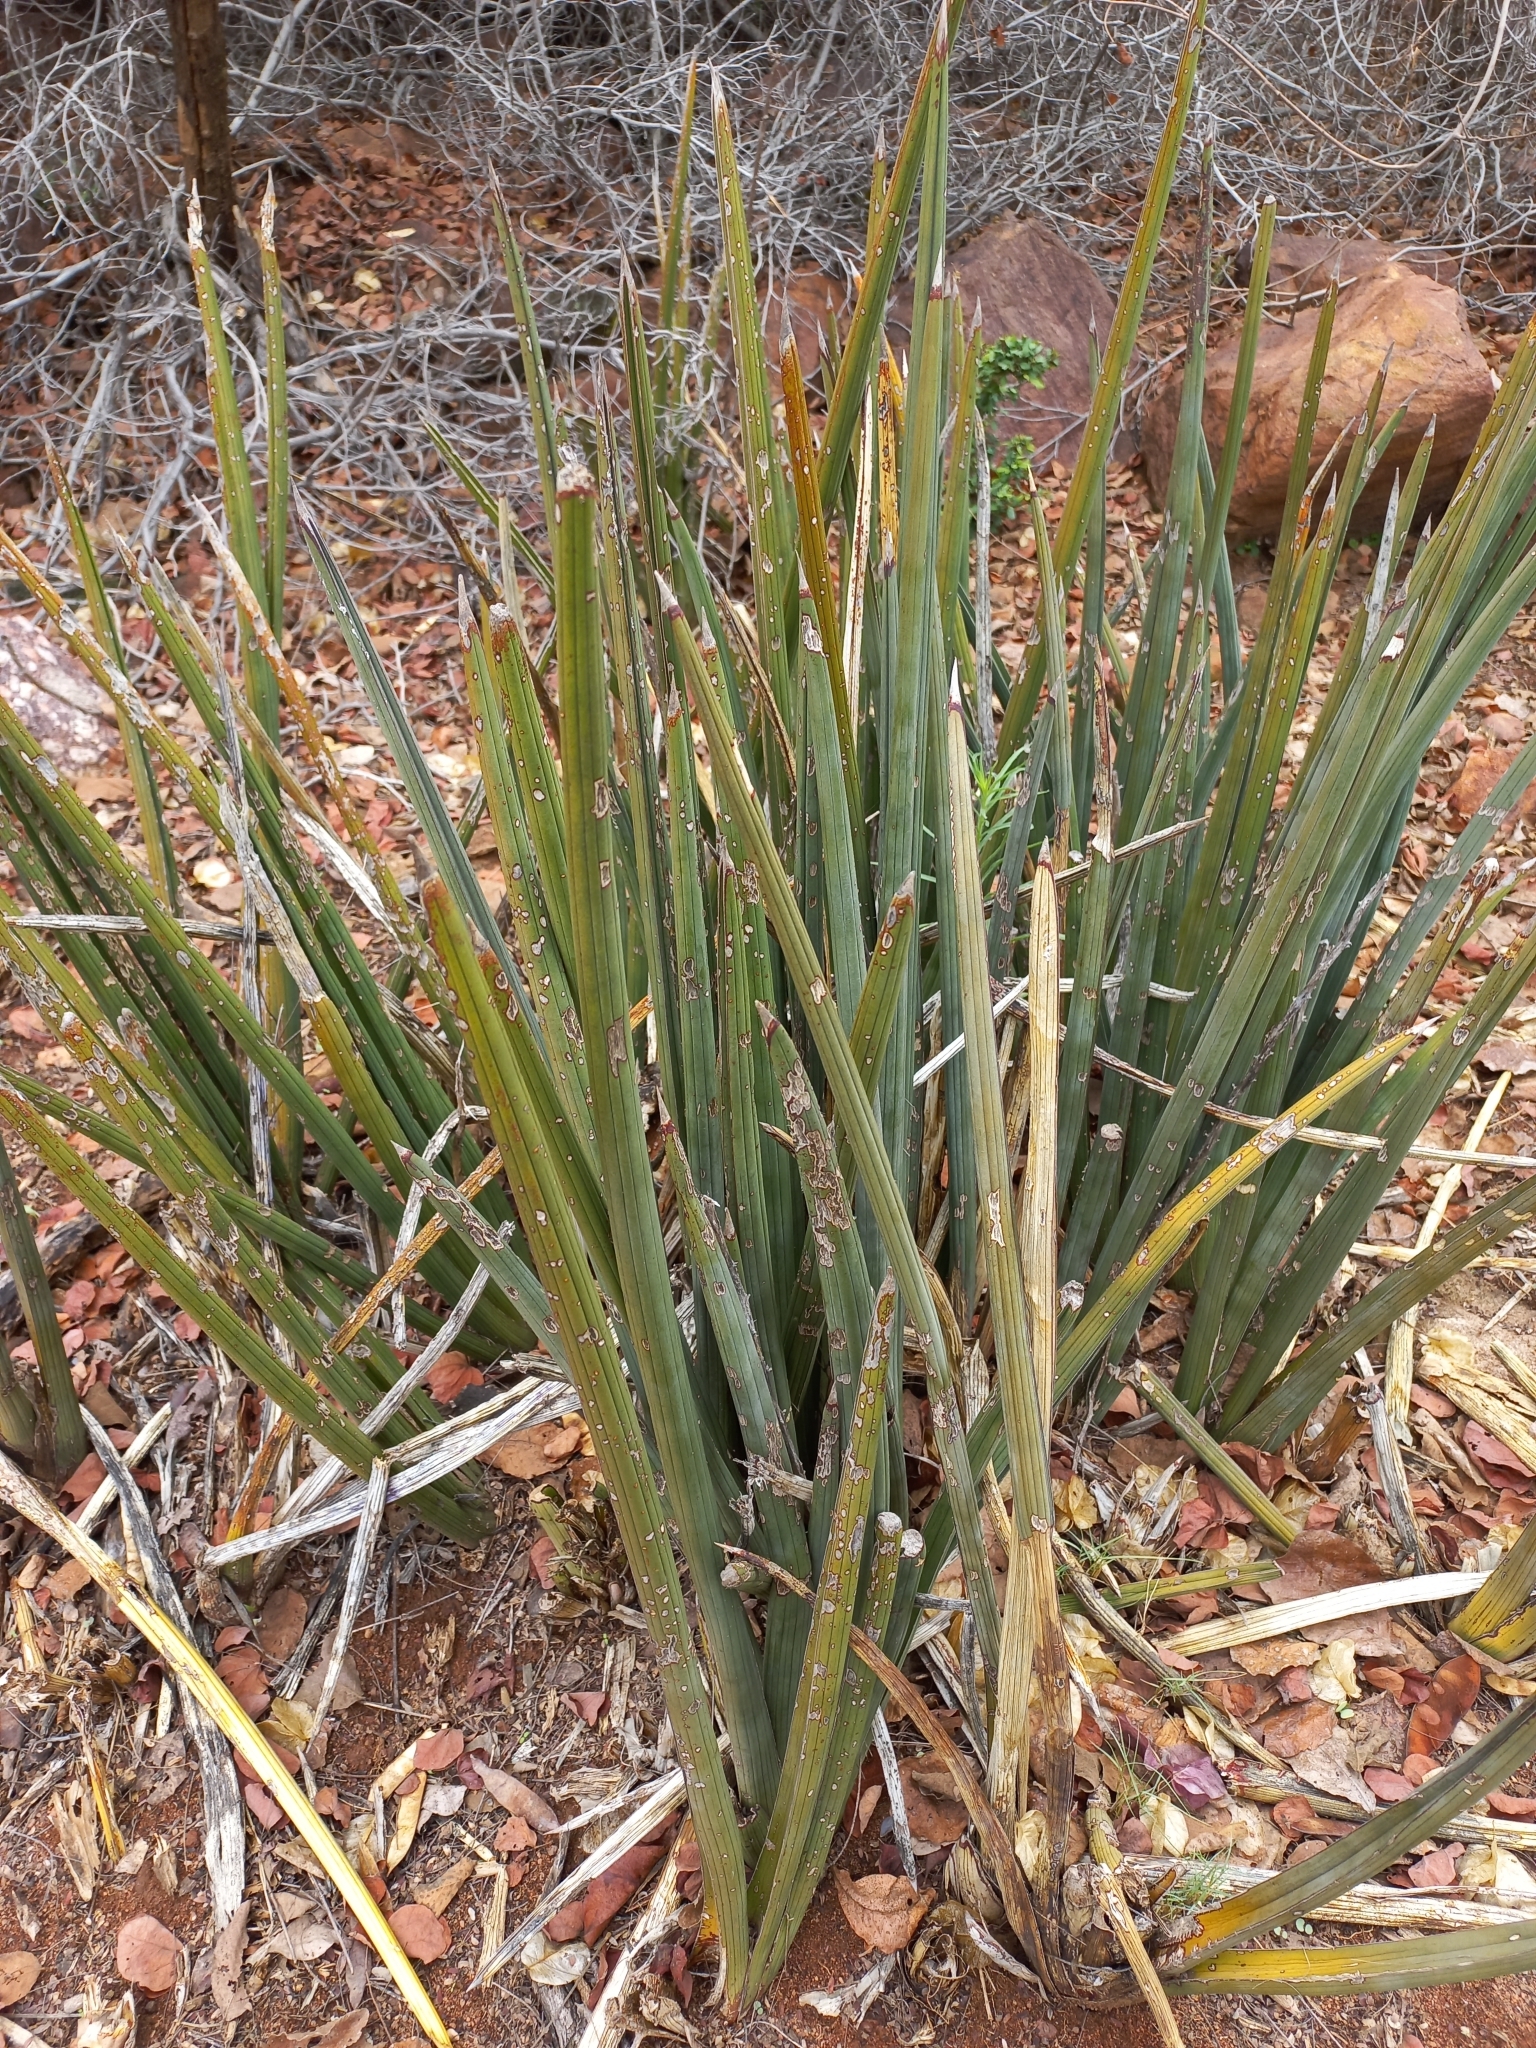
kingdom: Plantae
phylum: Tracheophyta
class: Liliopsida
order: Asparagales
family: Asparagaceae
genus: Dracaena
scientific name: Dracaena pearsonii
